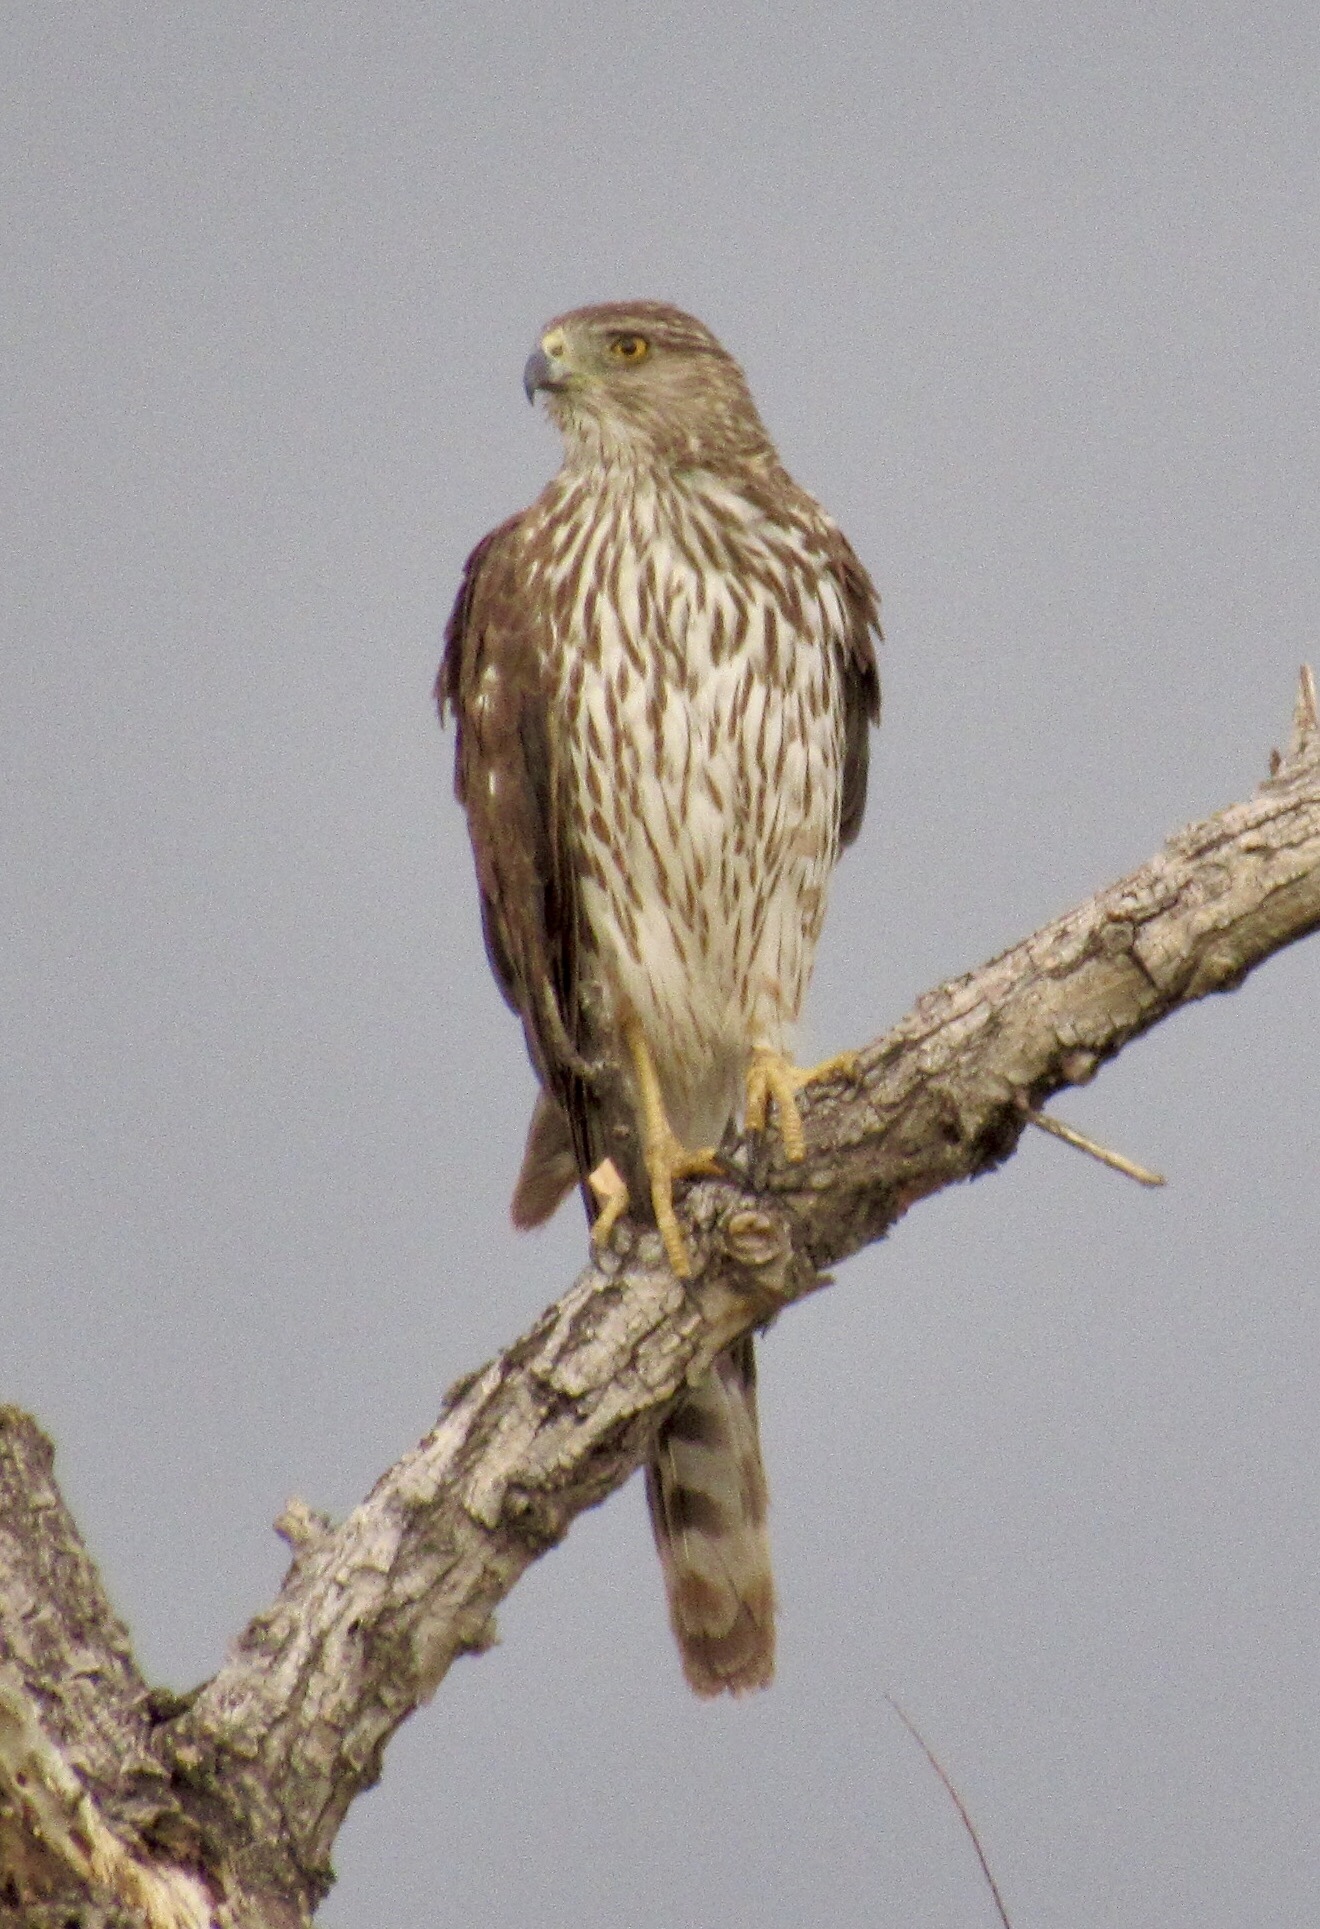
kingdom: Animalia
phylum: Chordata
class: Aves
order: Accipitriformes
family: Accipitridae
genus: Accipiter
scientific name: Accipiter cooperii
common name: Cooper's hawk
